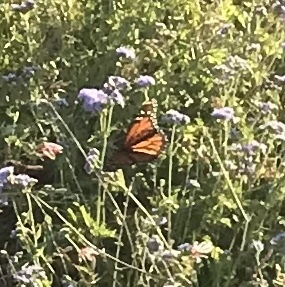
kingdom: Animalia
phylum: Arthropoda
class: Insecta
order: Lepidoptera
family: Nymphalidae
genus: Danaus
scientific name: Danaus plexippus
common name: Monarch
